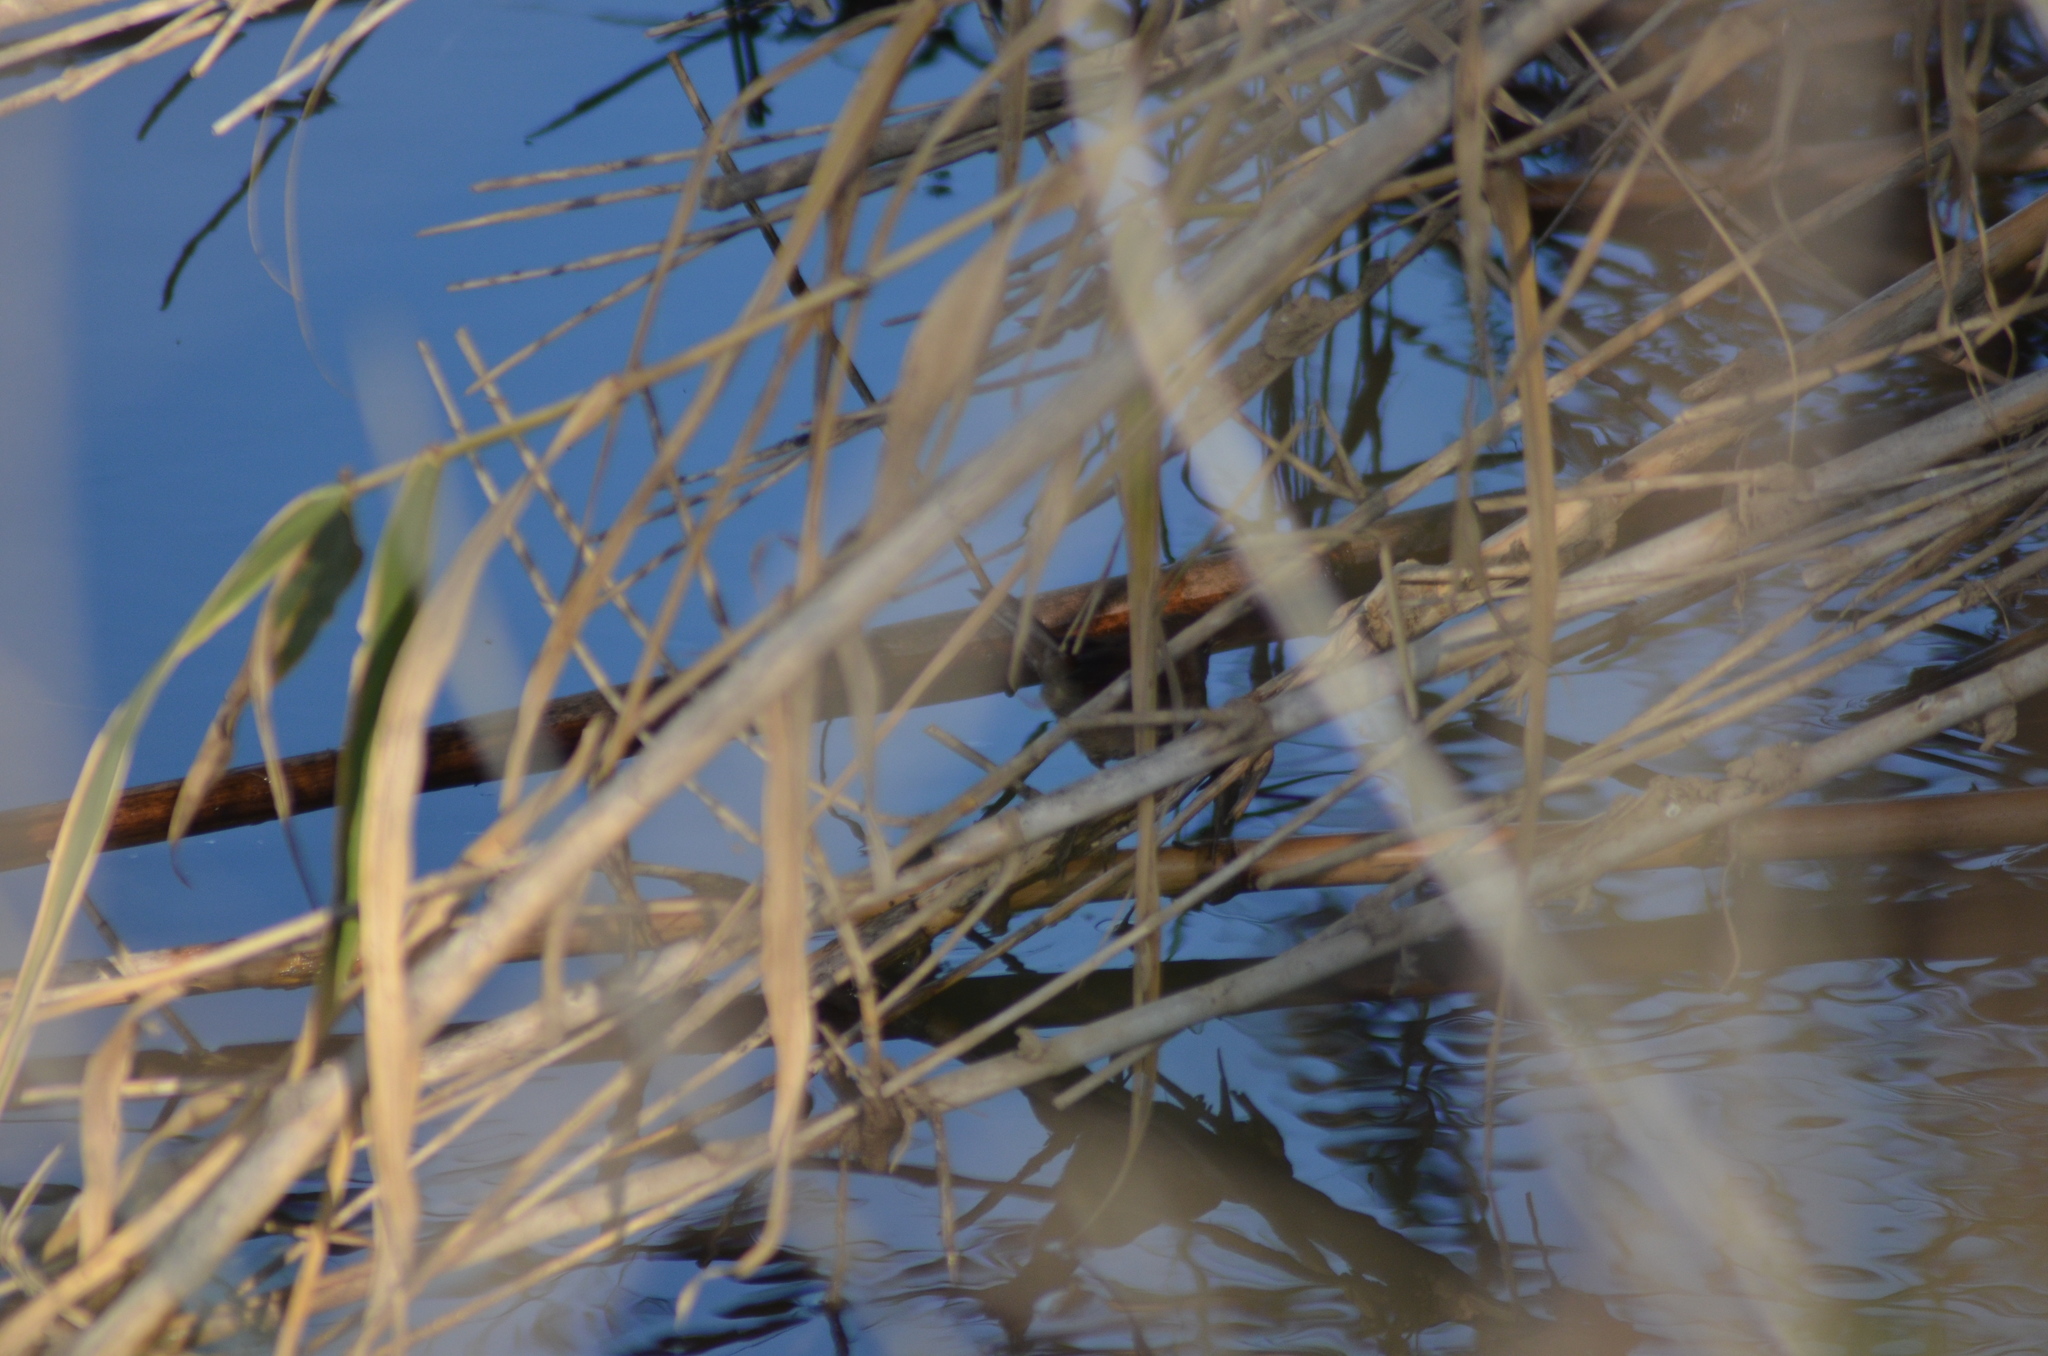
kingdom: Animalia
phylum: Chordata
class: Aves
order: Passeriformes
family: Cettiidae
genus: Cettia
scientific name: Cettia cetti
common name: Cetti's warbler
